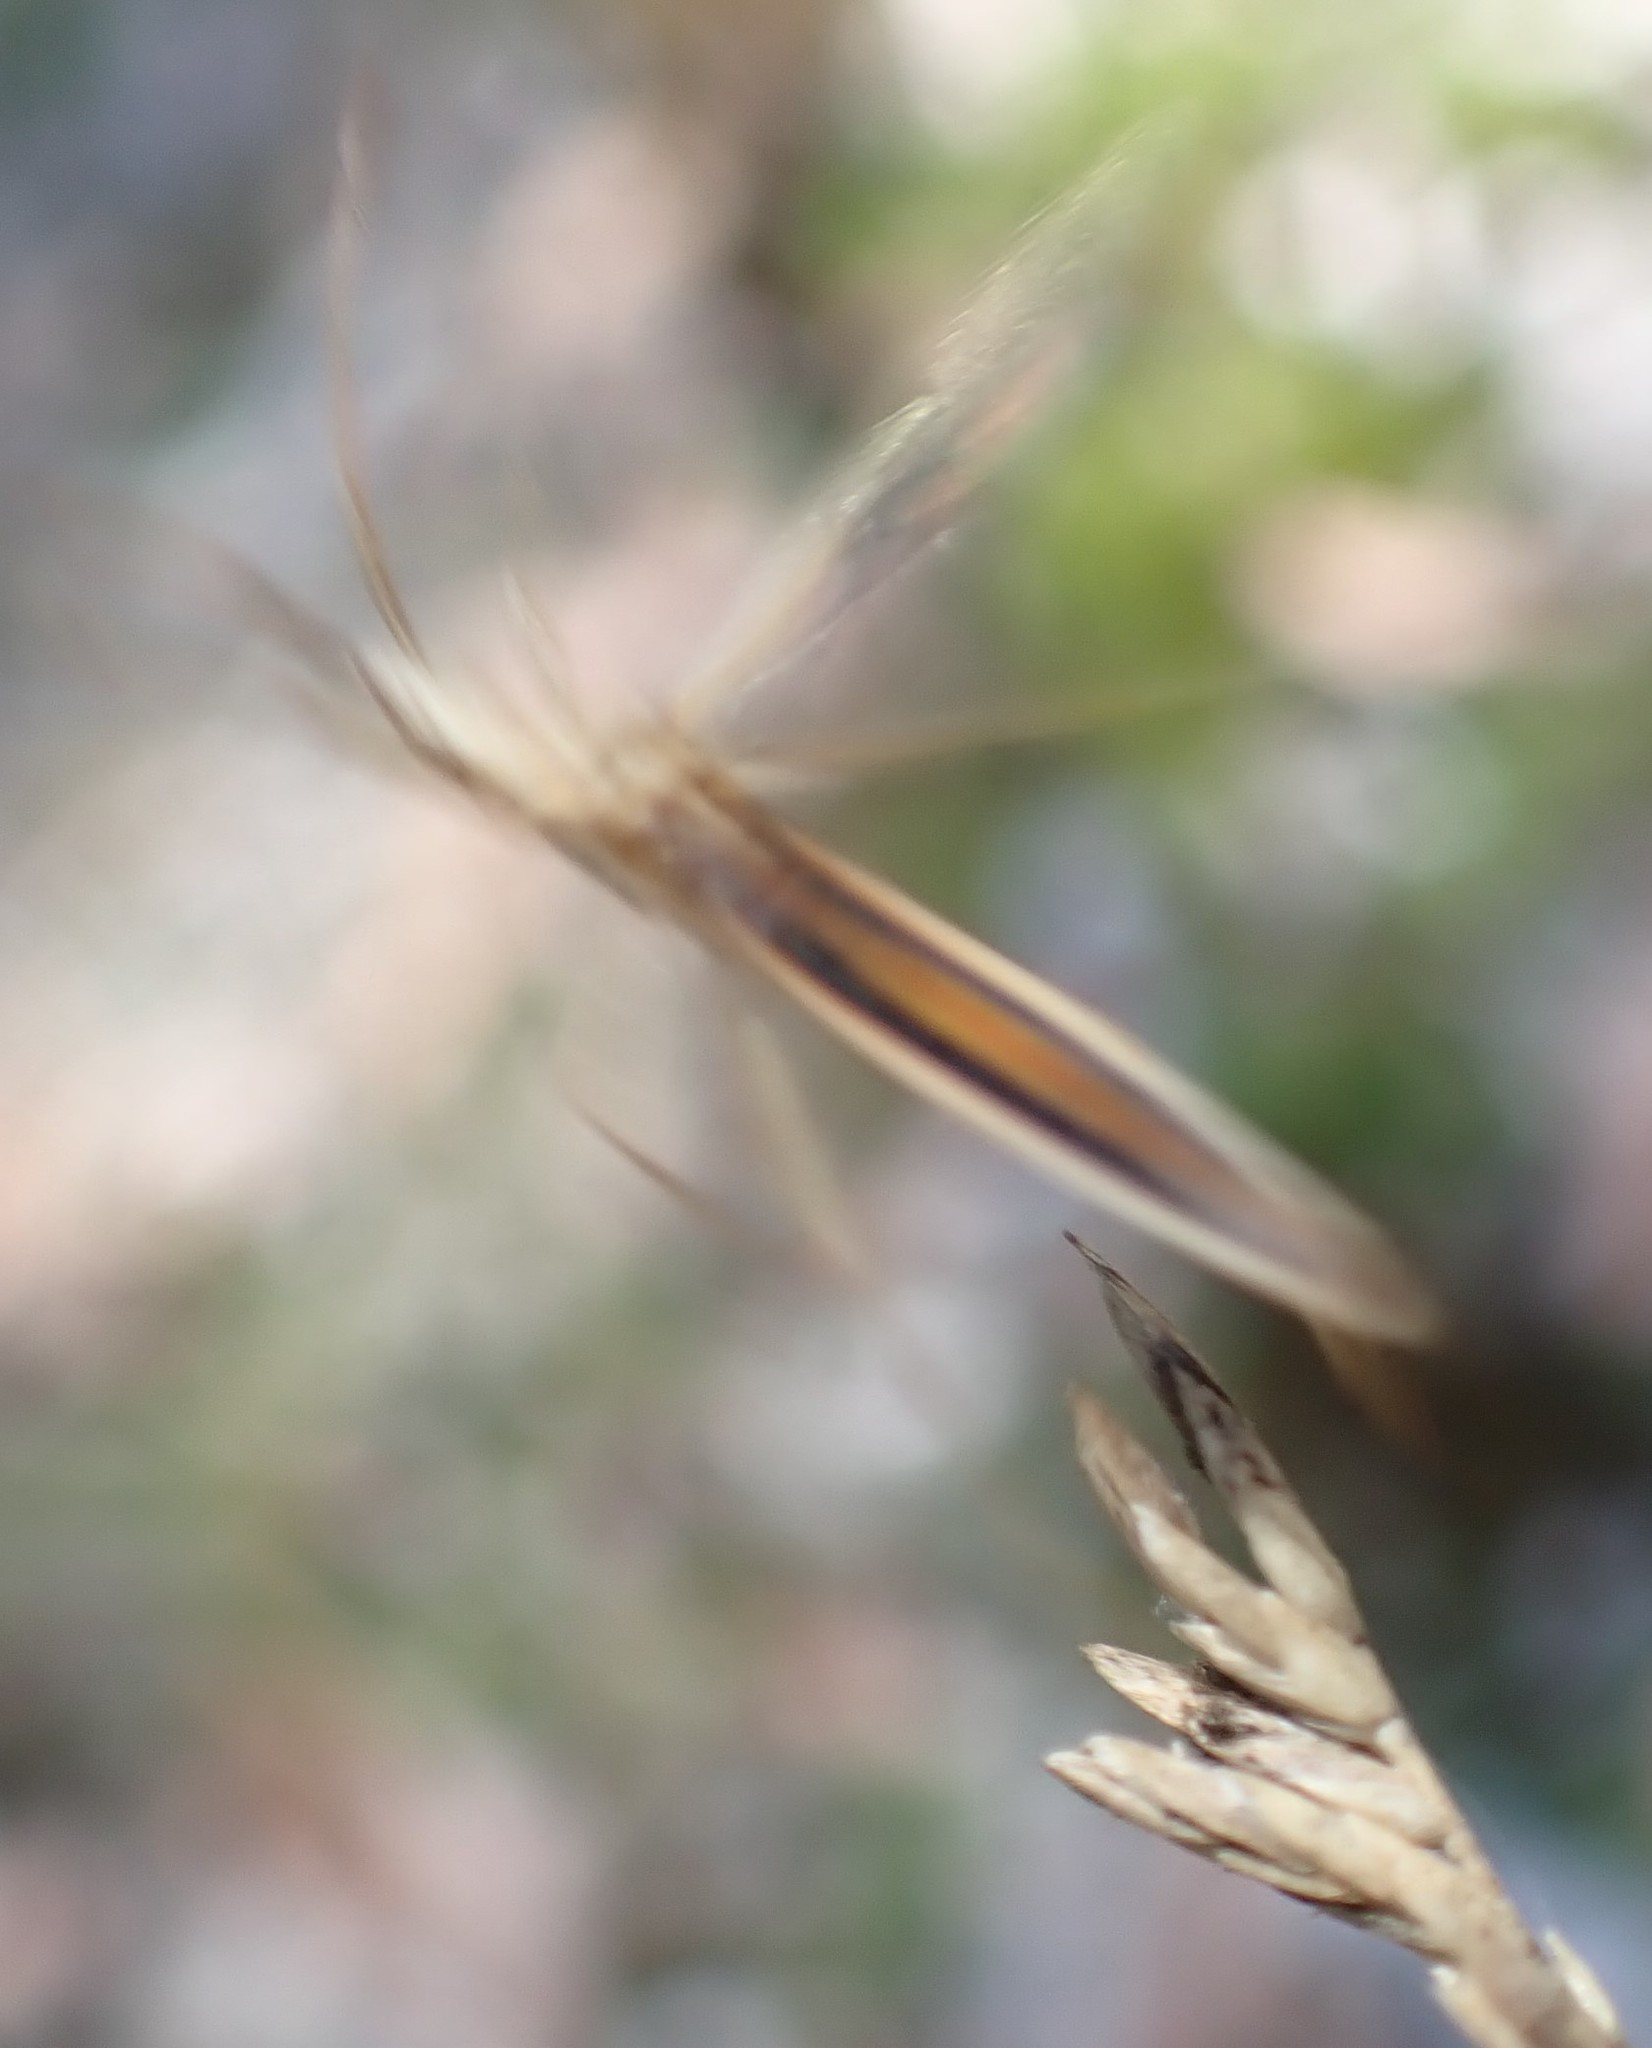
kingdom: Animalia
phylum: Arthropoda
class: Insecta
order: Hemiptera
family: Alydidae
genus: Mutusca
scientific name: Mutusca brevicornis
